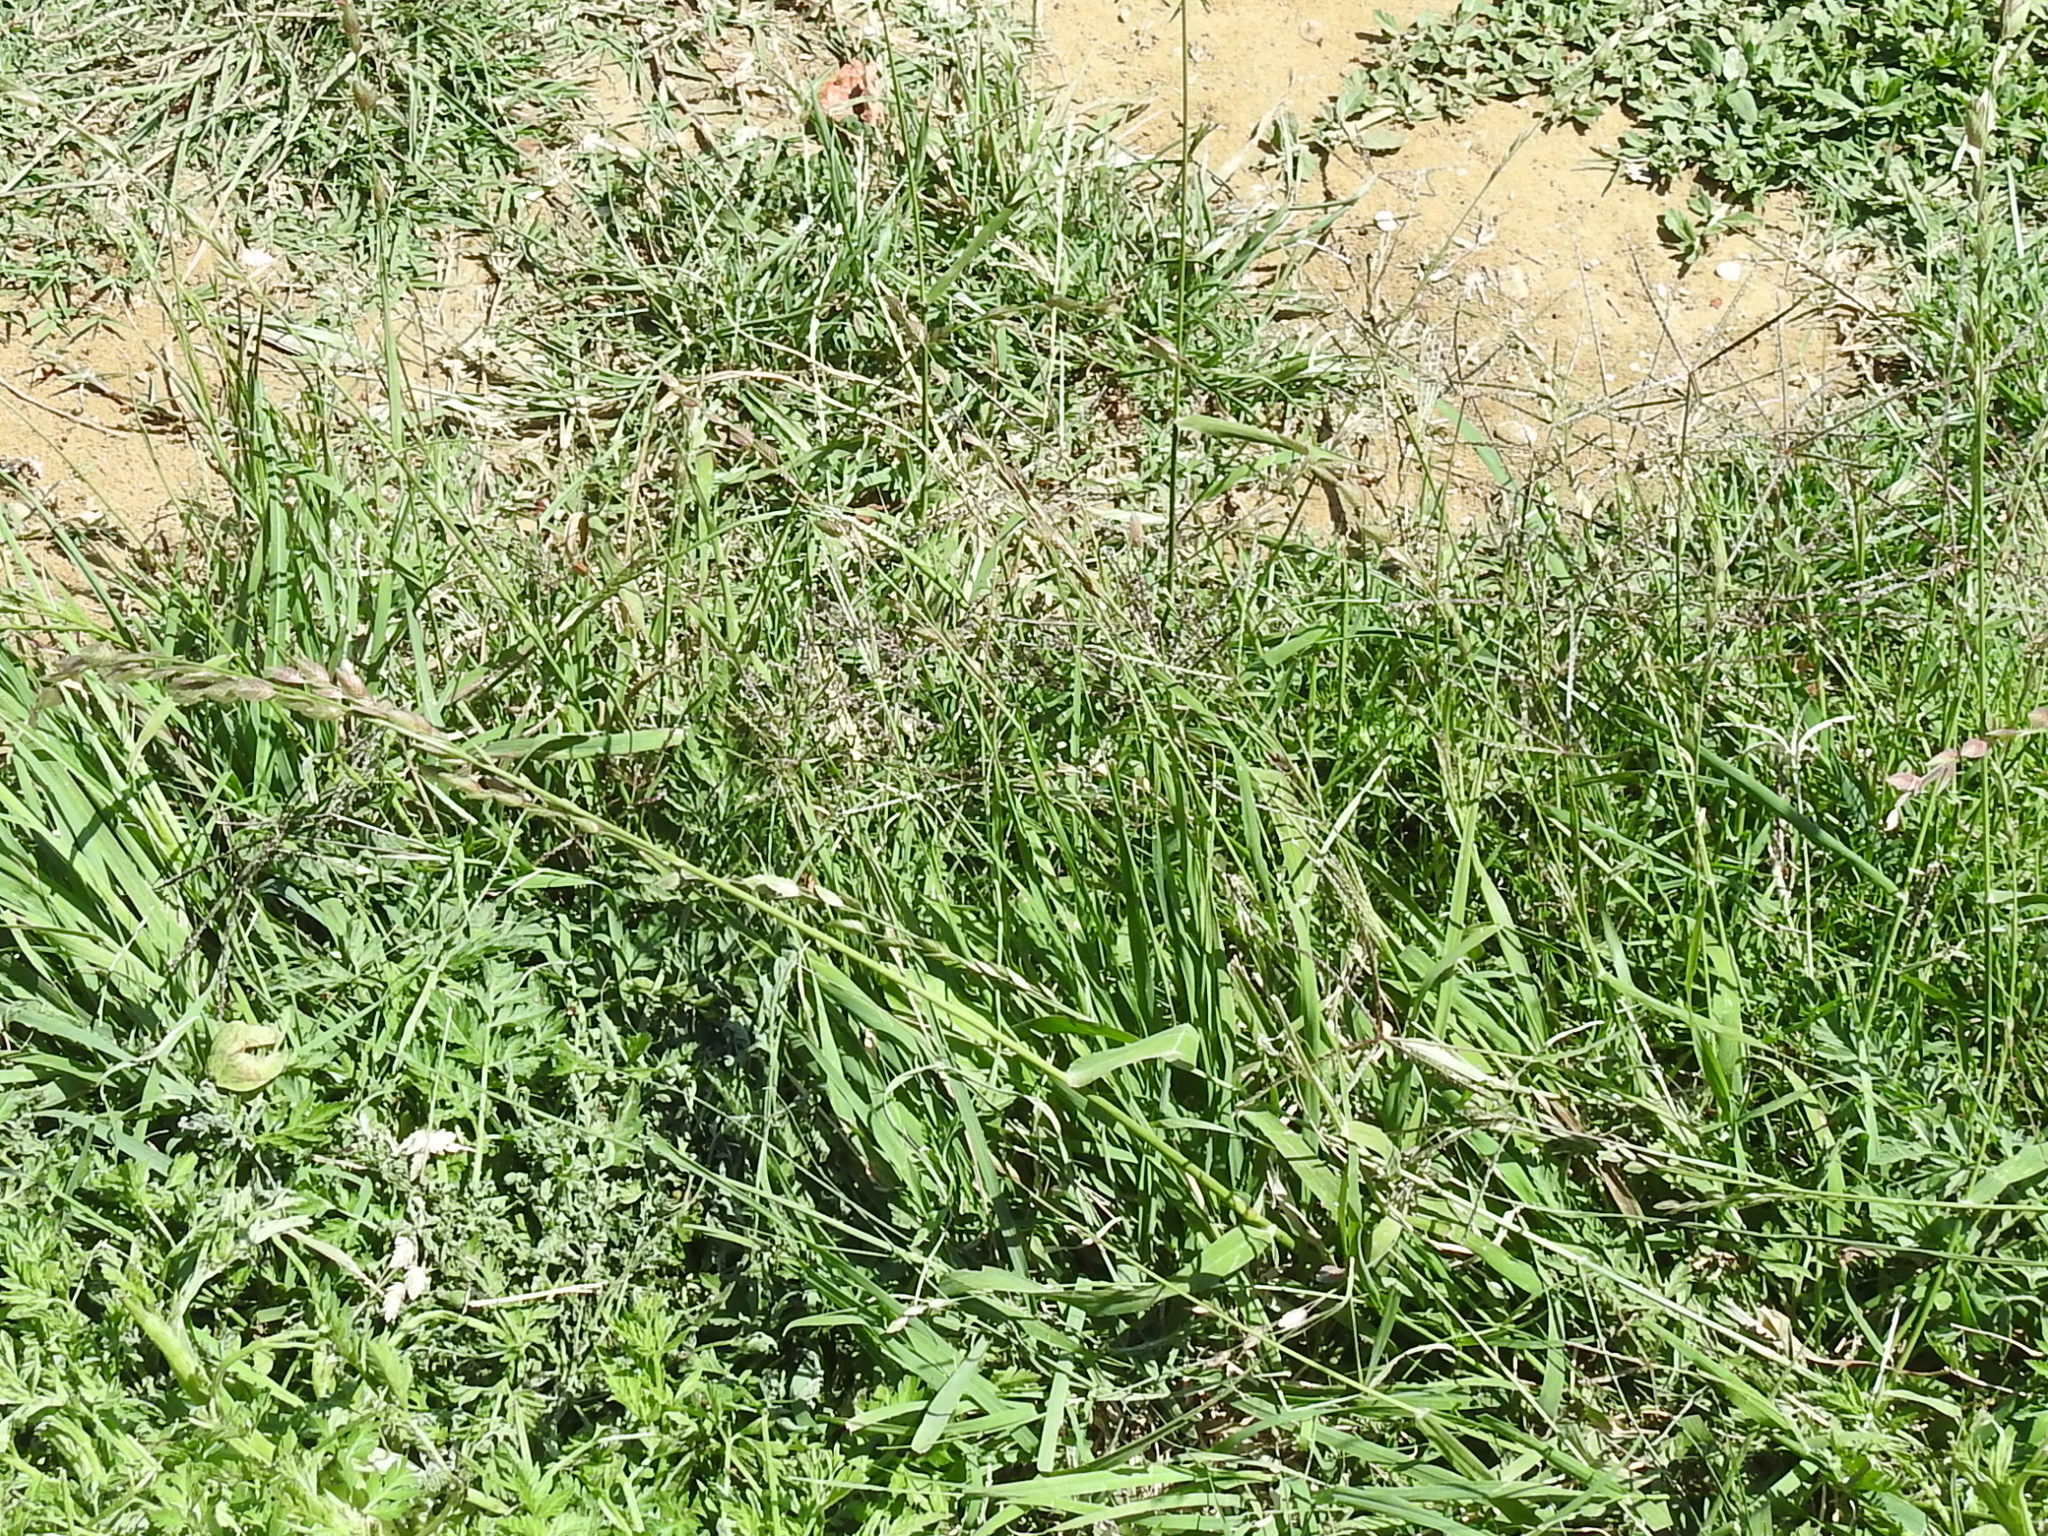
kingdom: Plantae
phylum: Tracheophyta
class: Liliopsida
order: Poales
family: Poaceae
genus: Eragrostis
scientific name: Eragrostis superba
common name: Wilman lovegrass
